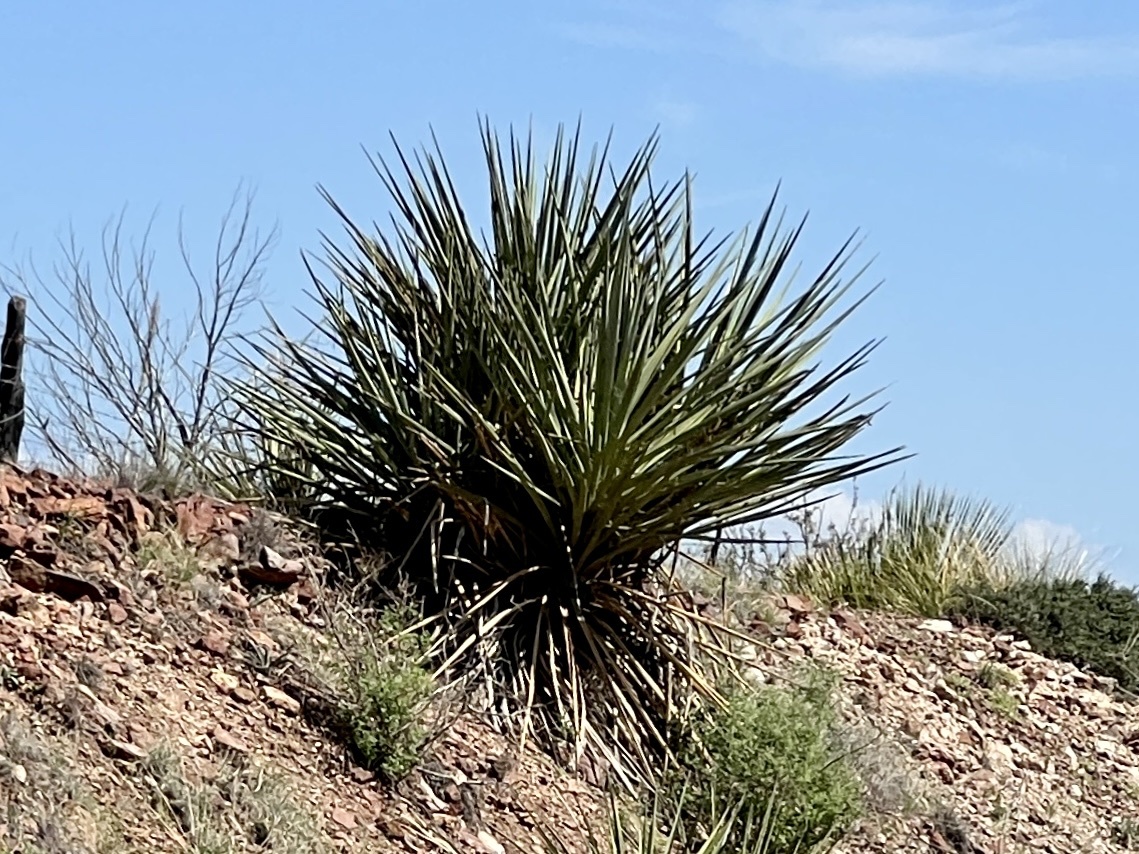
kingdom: Plantae
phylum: Tracheophyta
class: Liliopsida
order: Asparagales
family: Asparagaceae
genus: Yucca
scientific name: Yucca treculiana
